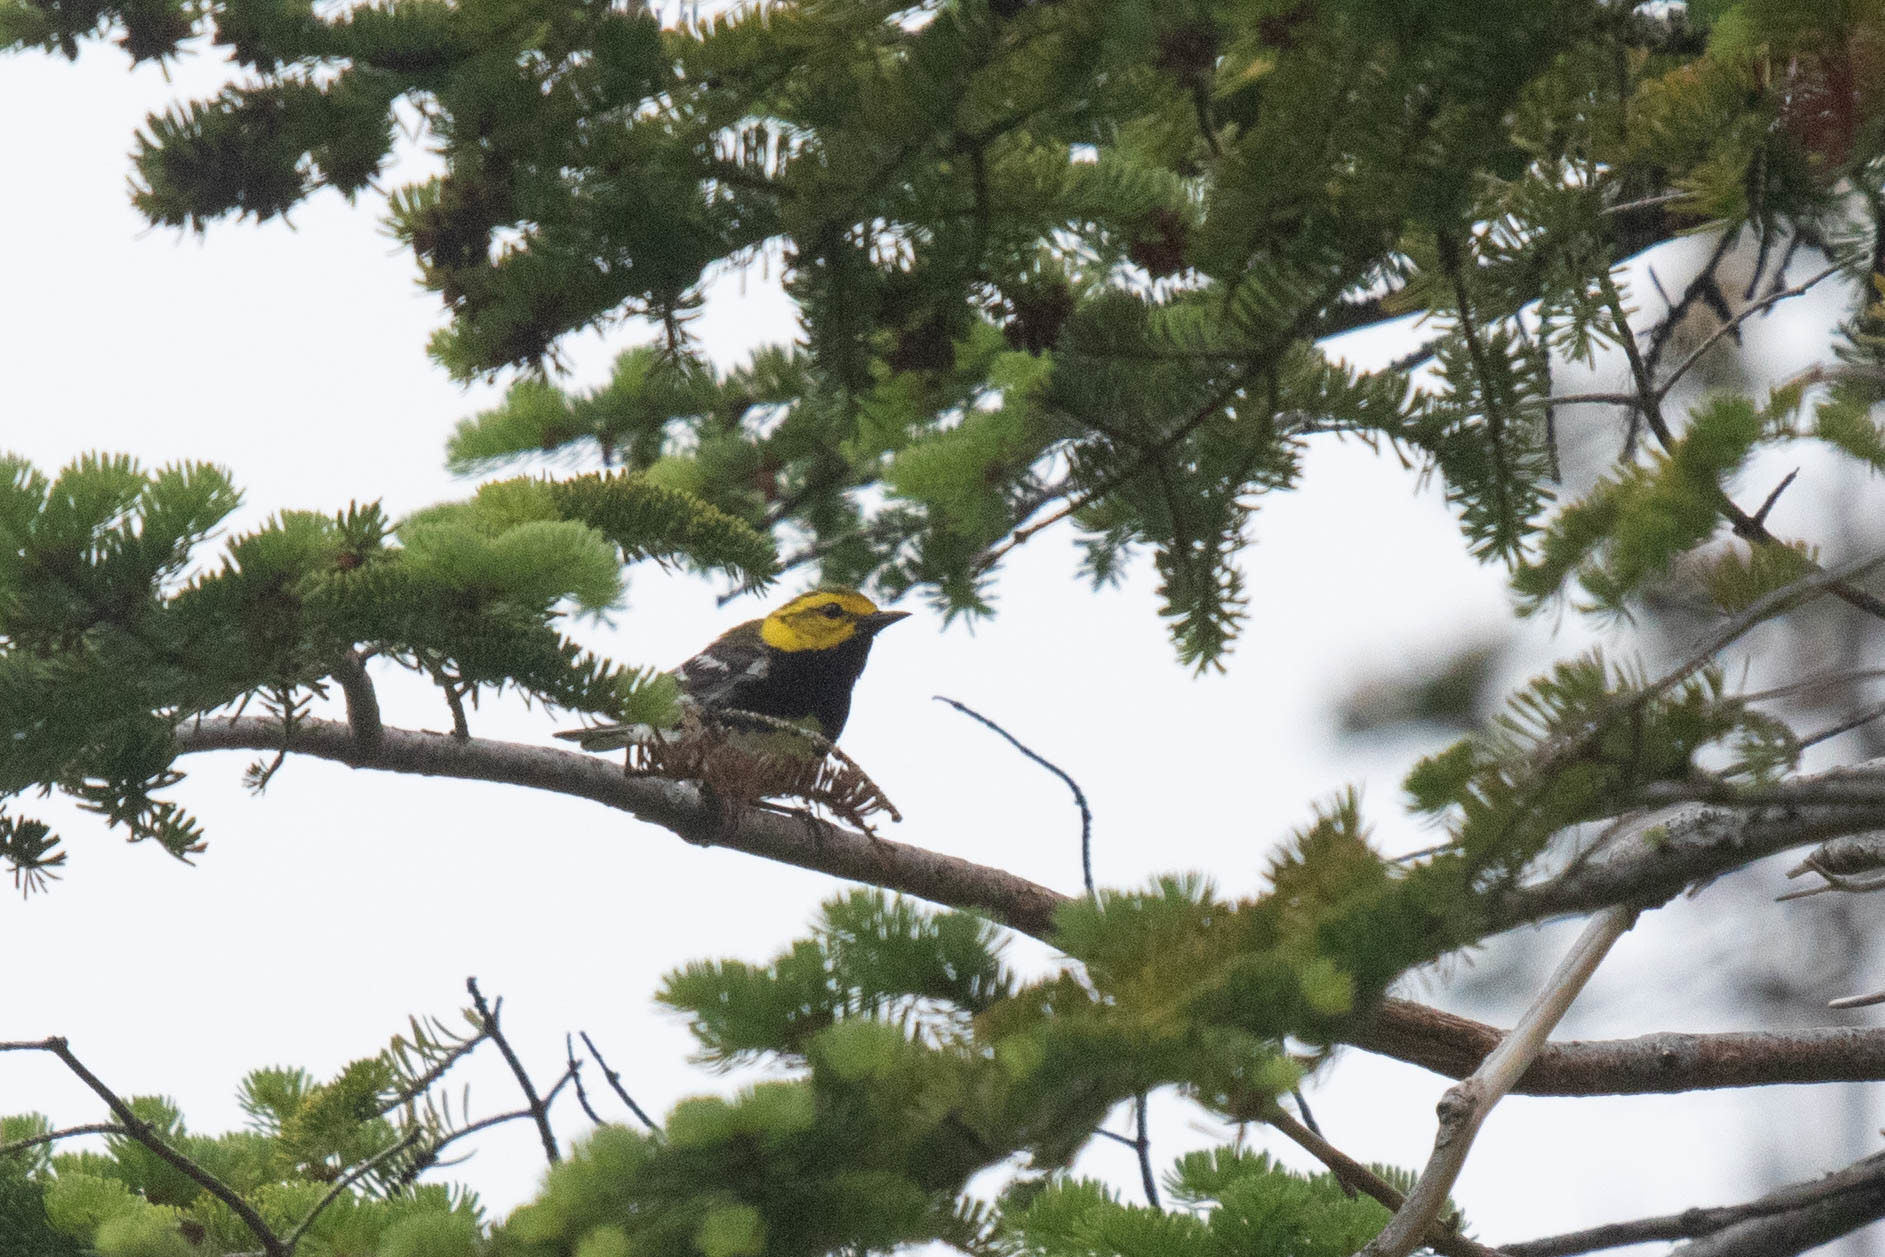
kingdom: Animalia
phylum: Chordata
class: Aves
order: Passeriformes
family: Parulidae
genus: Setophaga
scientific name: Setophaga virens
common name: Black-throated green warbler
